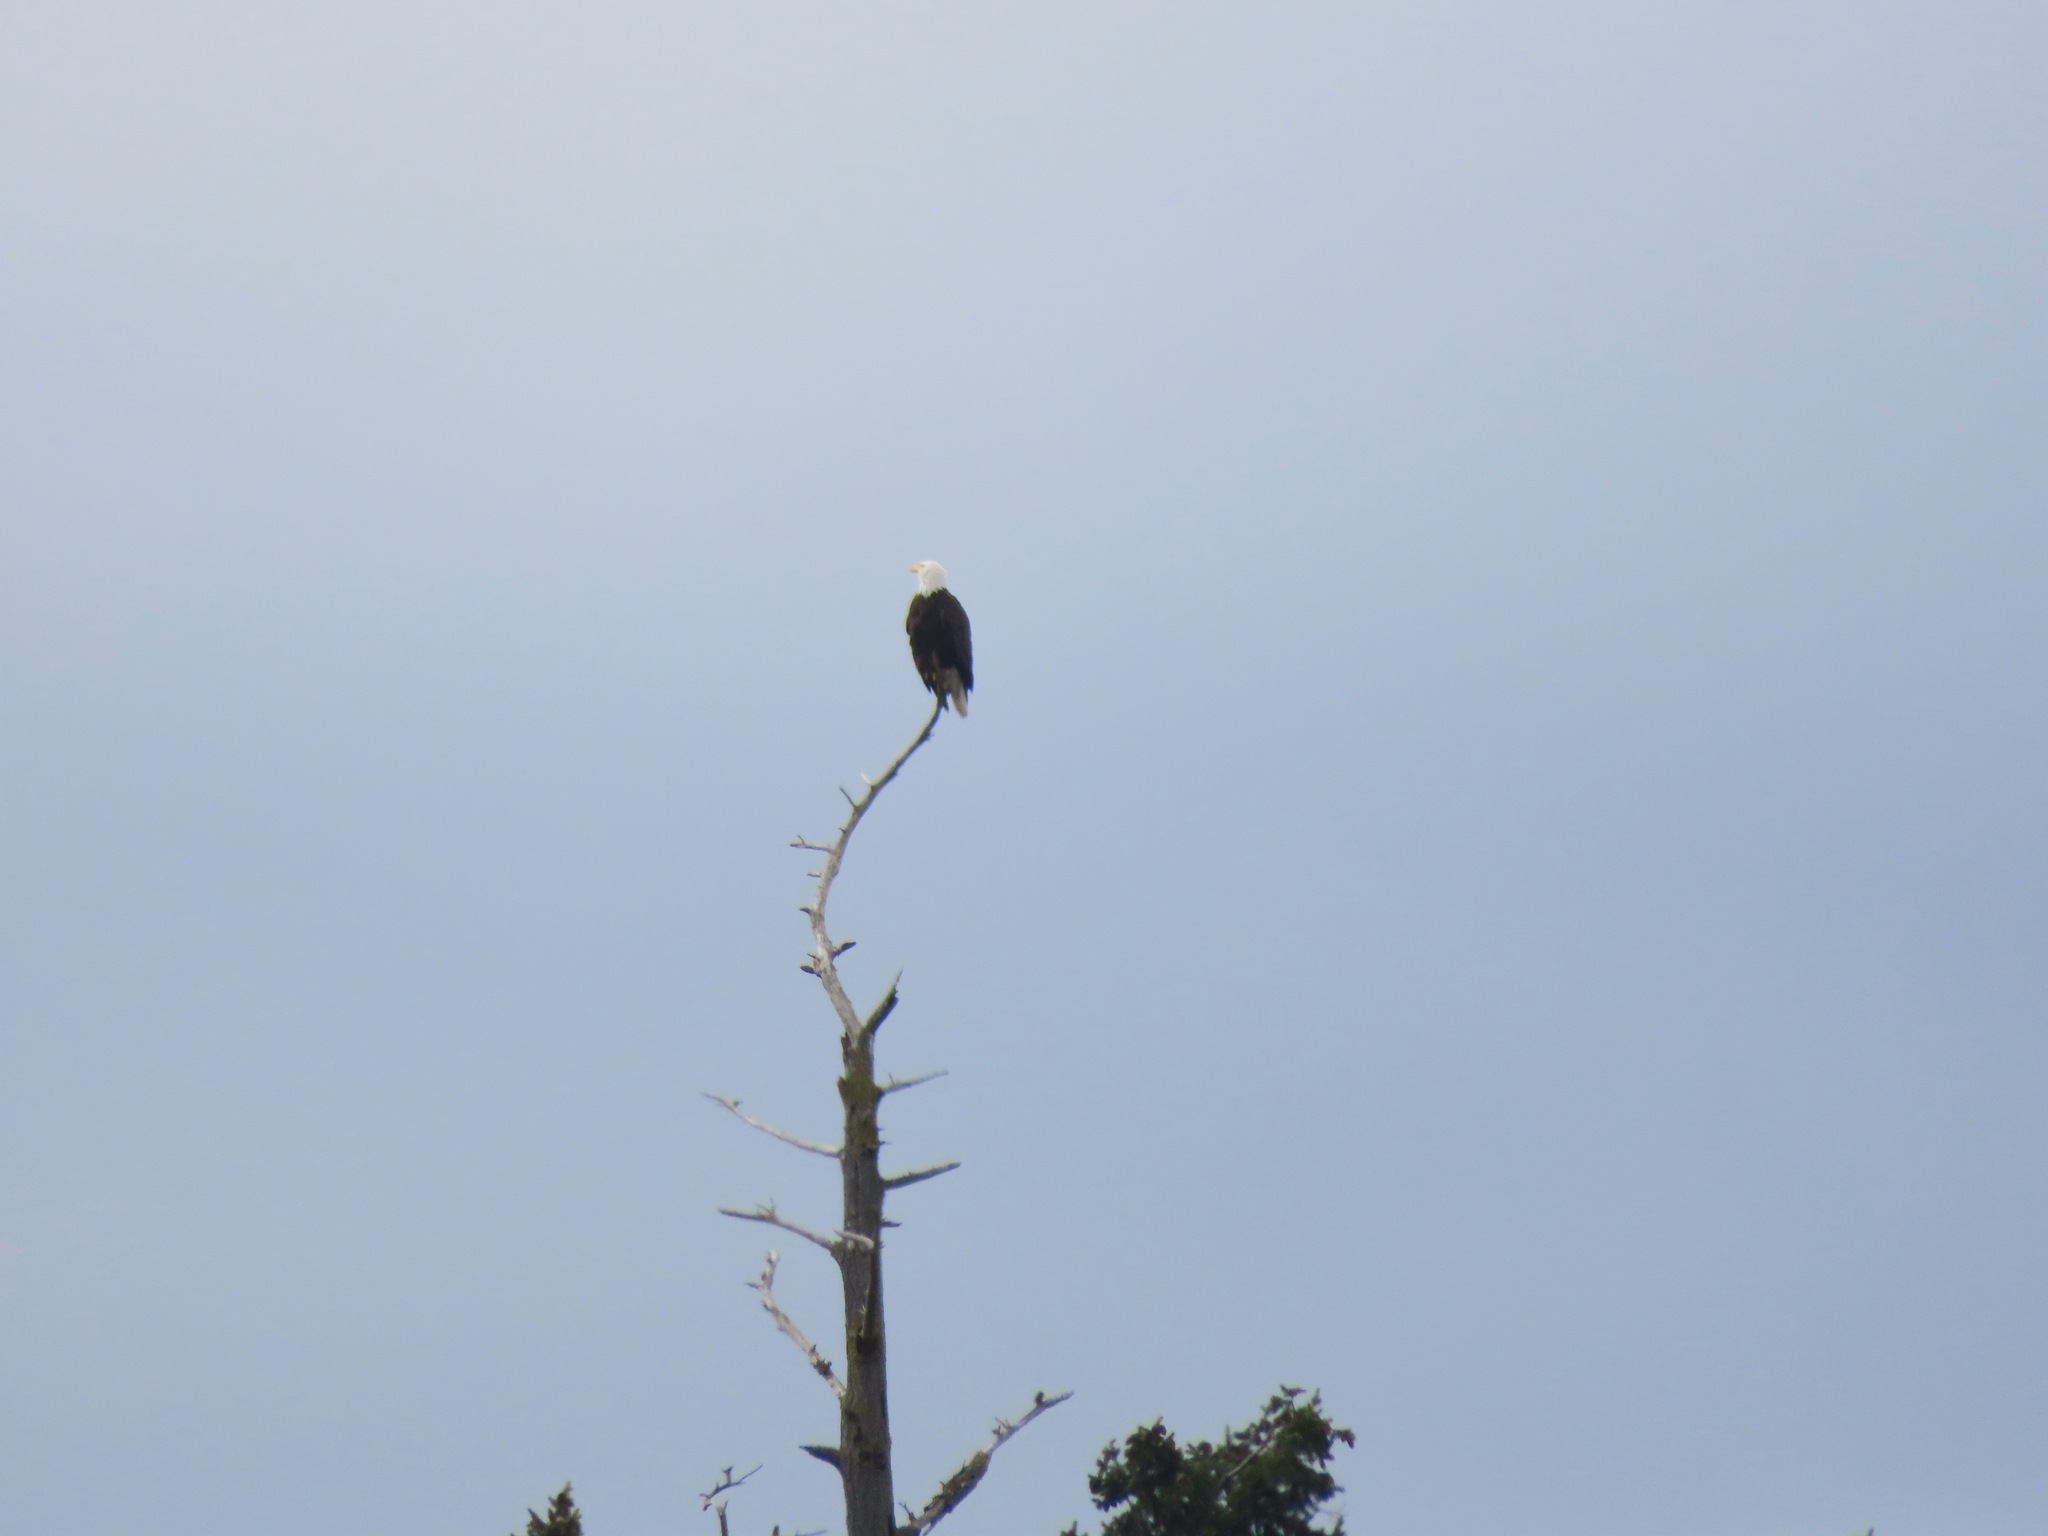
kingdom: Animalia
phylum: Chordata
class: Aves
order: Accipitriformes
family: Accipitridae
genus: Haliaeetus
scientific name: Haliaeetus leucocephalus
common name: Bald eagle
